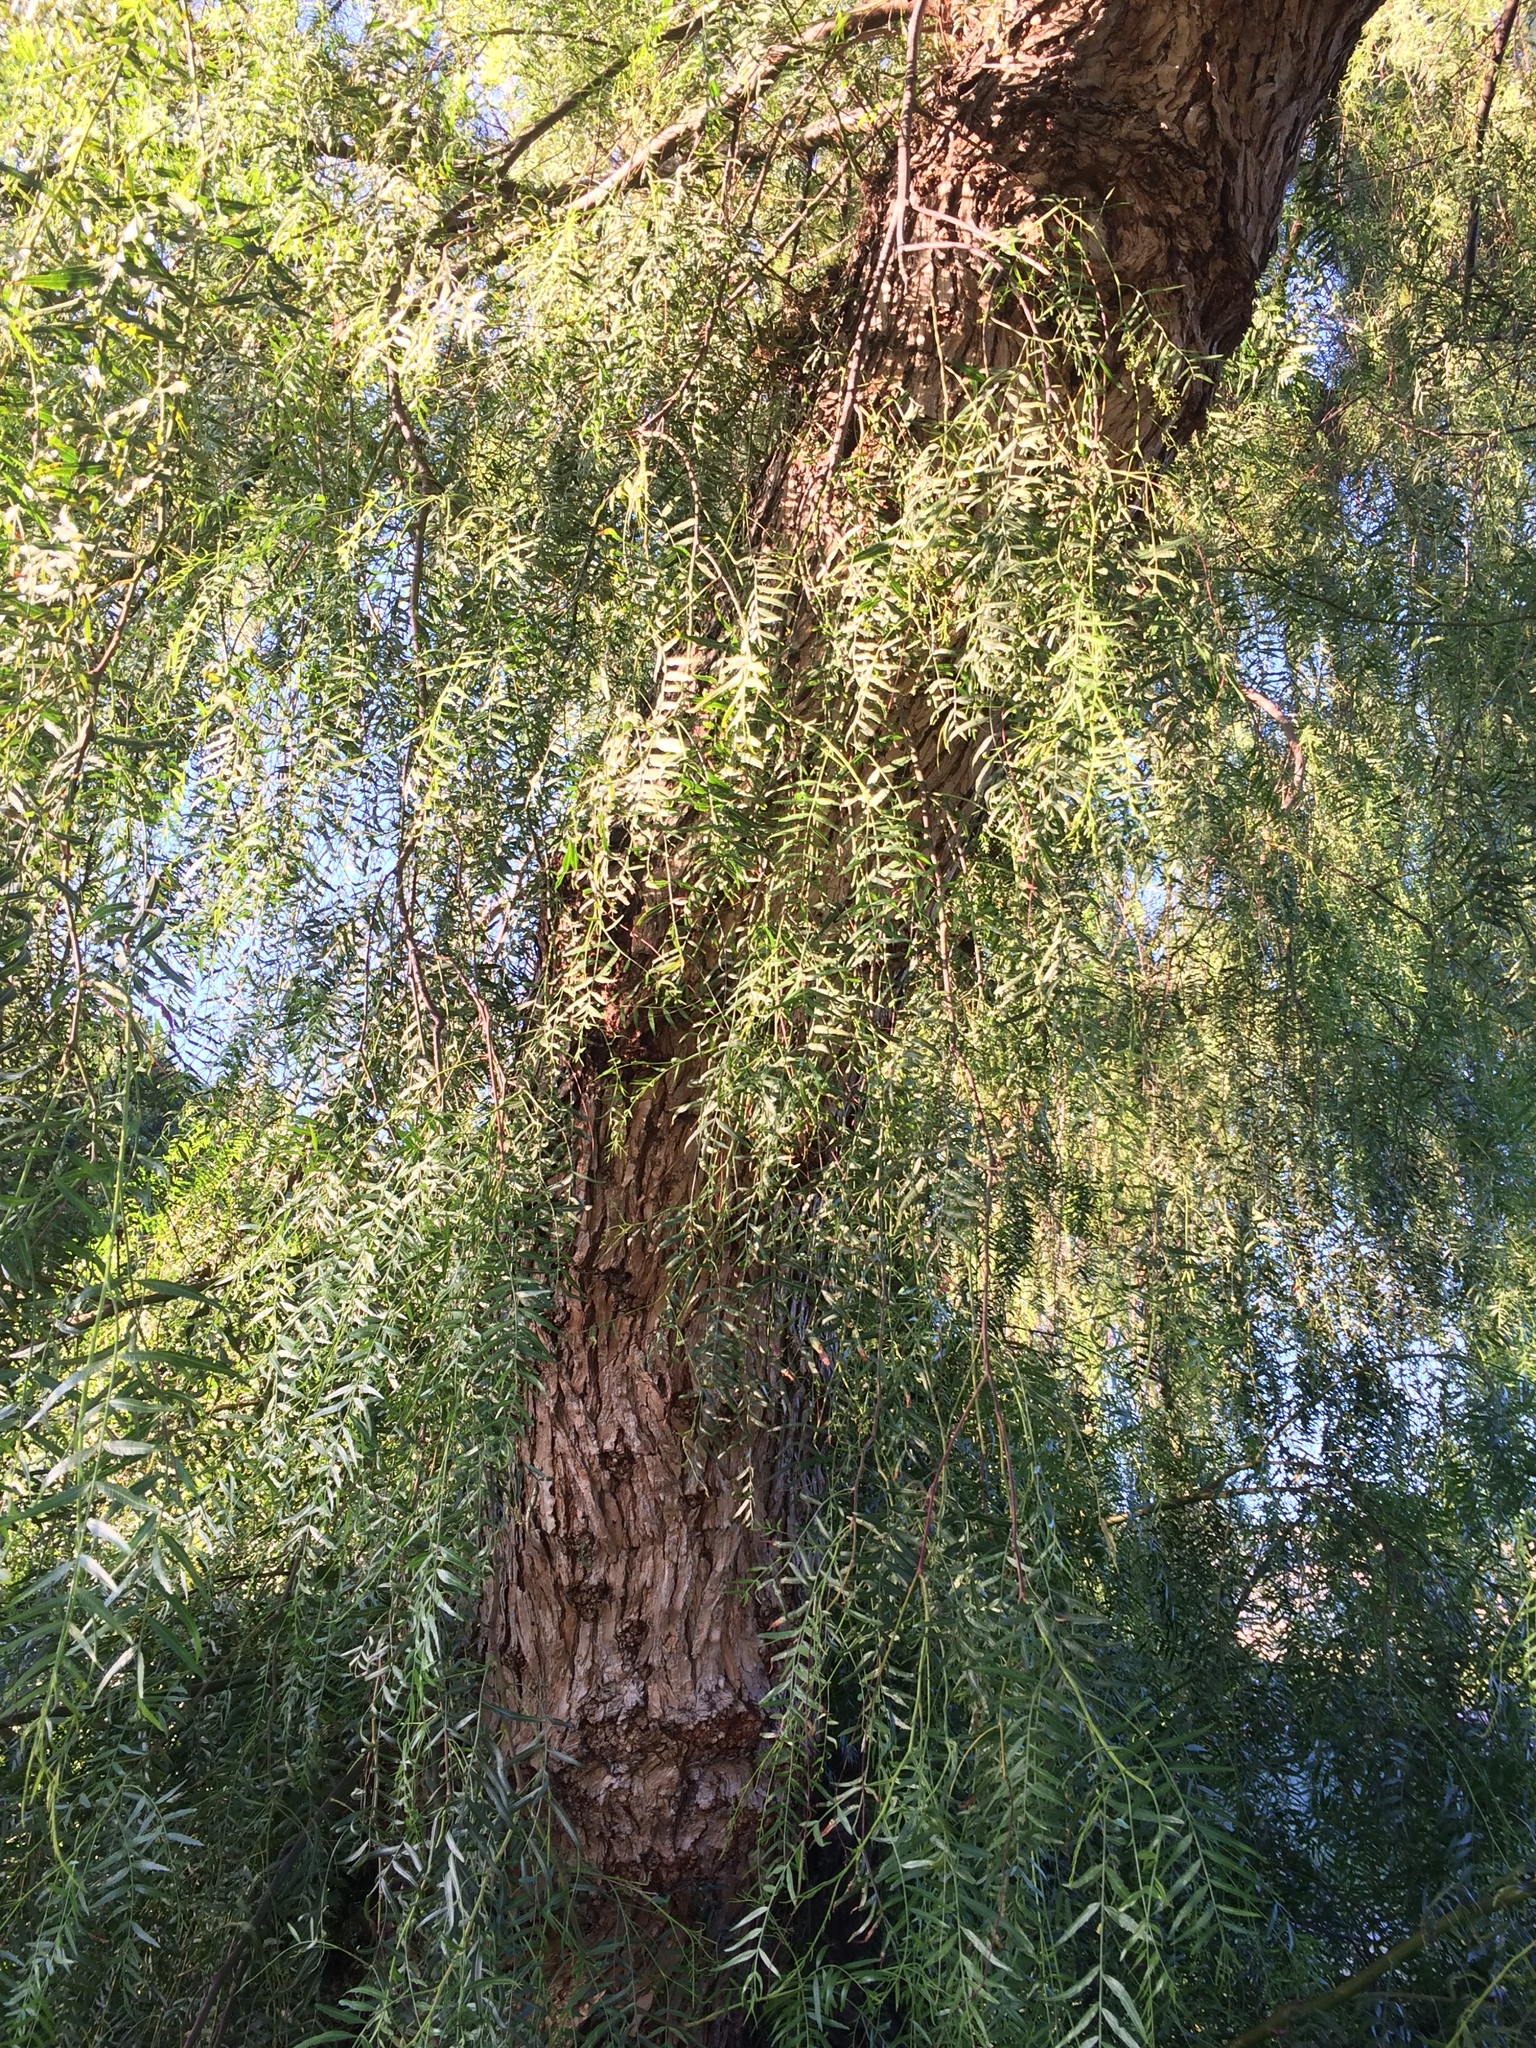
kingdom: Plantae
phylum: Tracheophyta
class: Magnoliopsida
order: Sapindales
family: Anacardiaceae
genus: Schinus
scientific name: Schinus molle
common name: Peruvian peppertree
